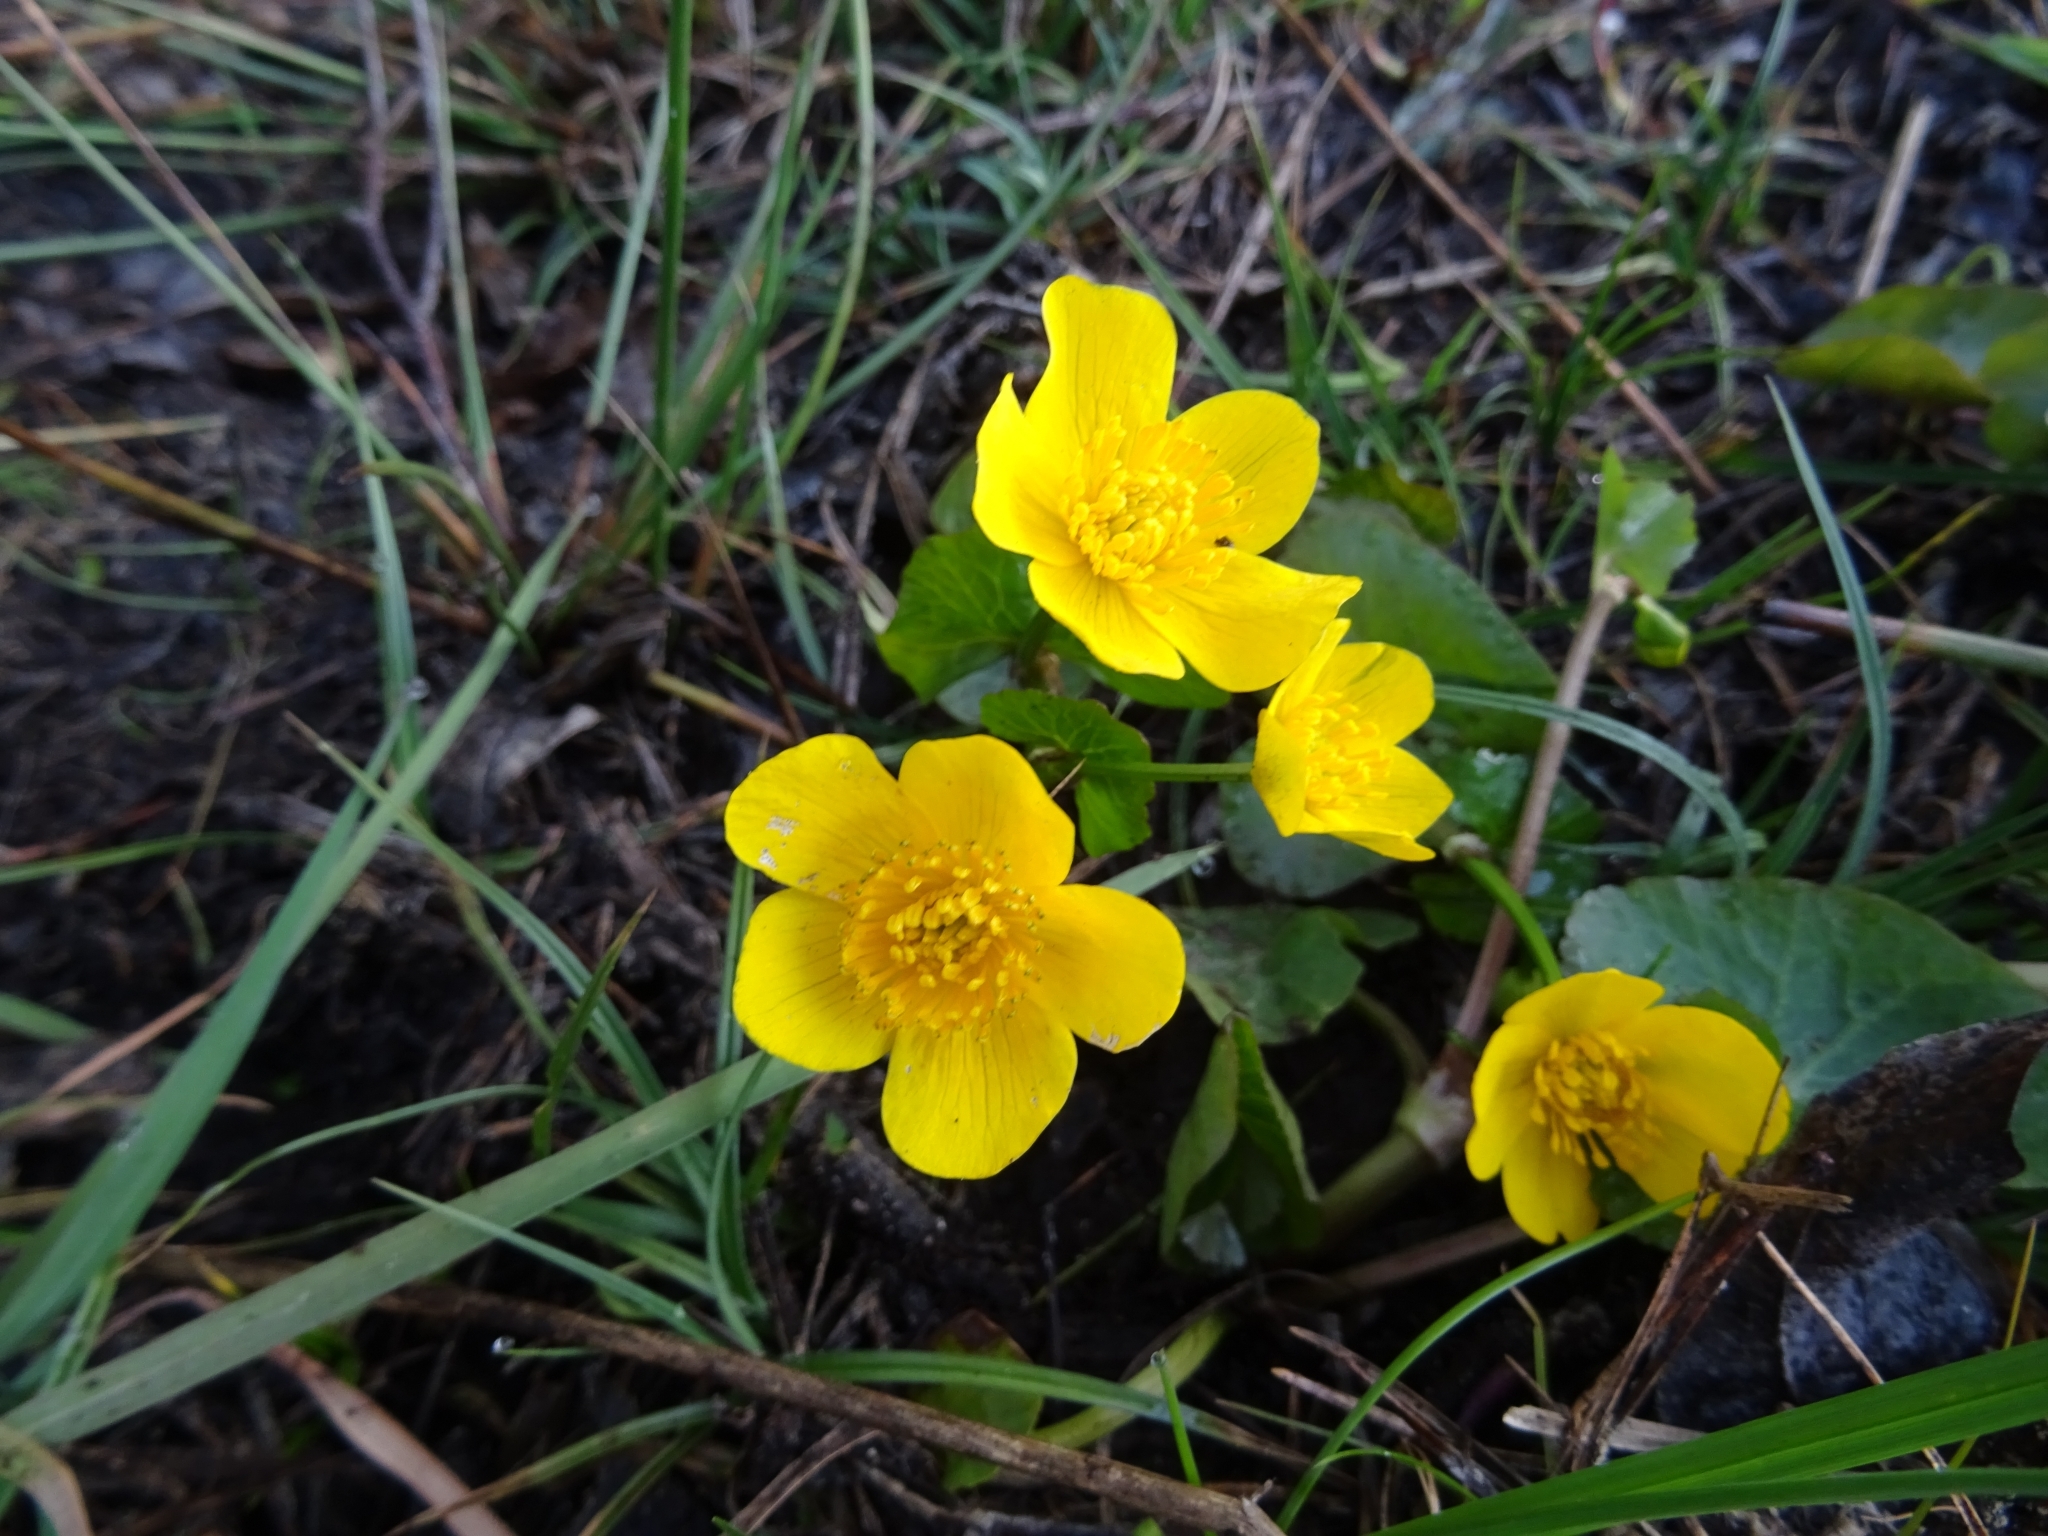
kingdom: Plantae
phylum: Tracheophyta
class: Magnoliopsida
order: Ranunculales
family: Ranunculaceae
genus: Caltha
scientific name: Caltha palustris
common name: Marsh marigold
